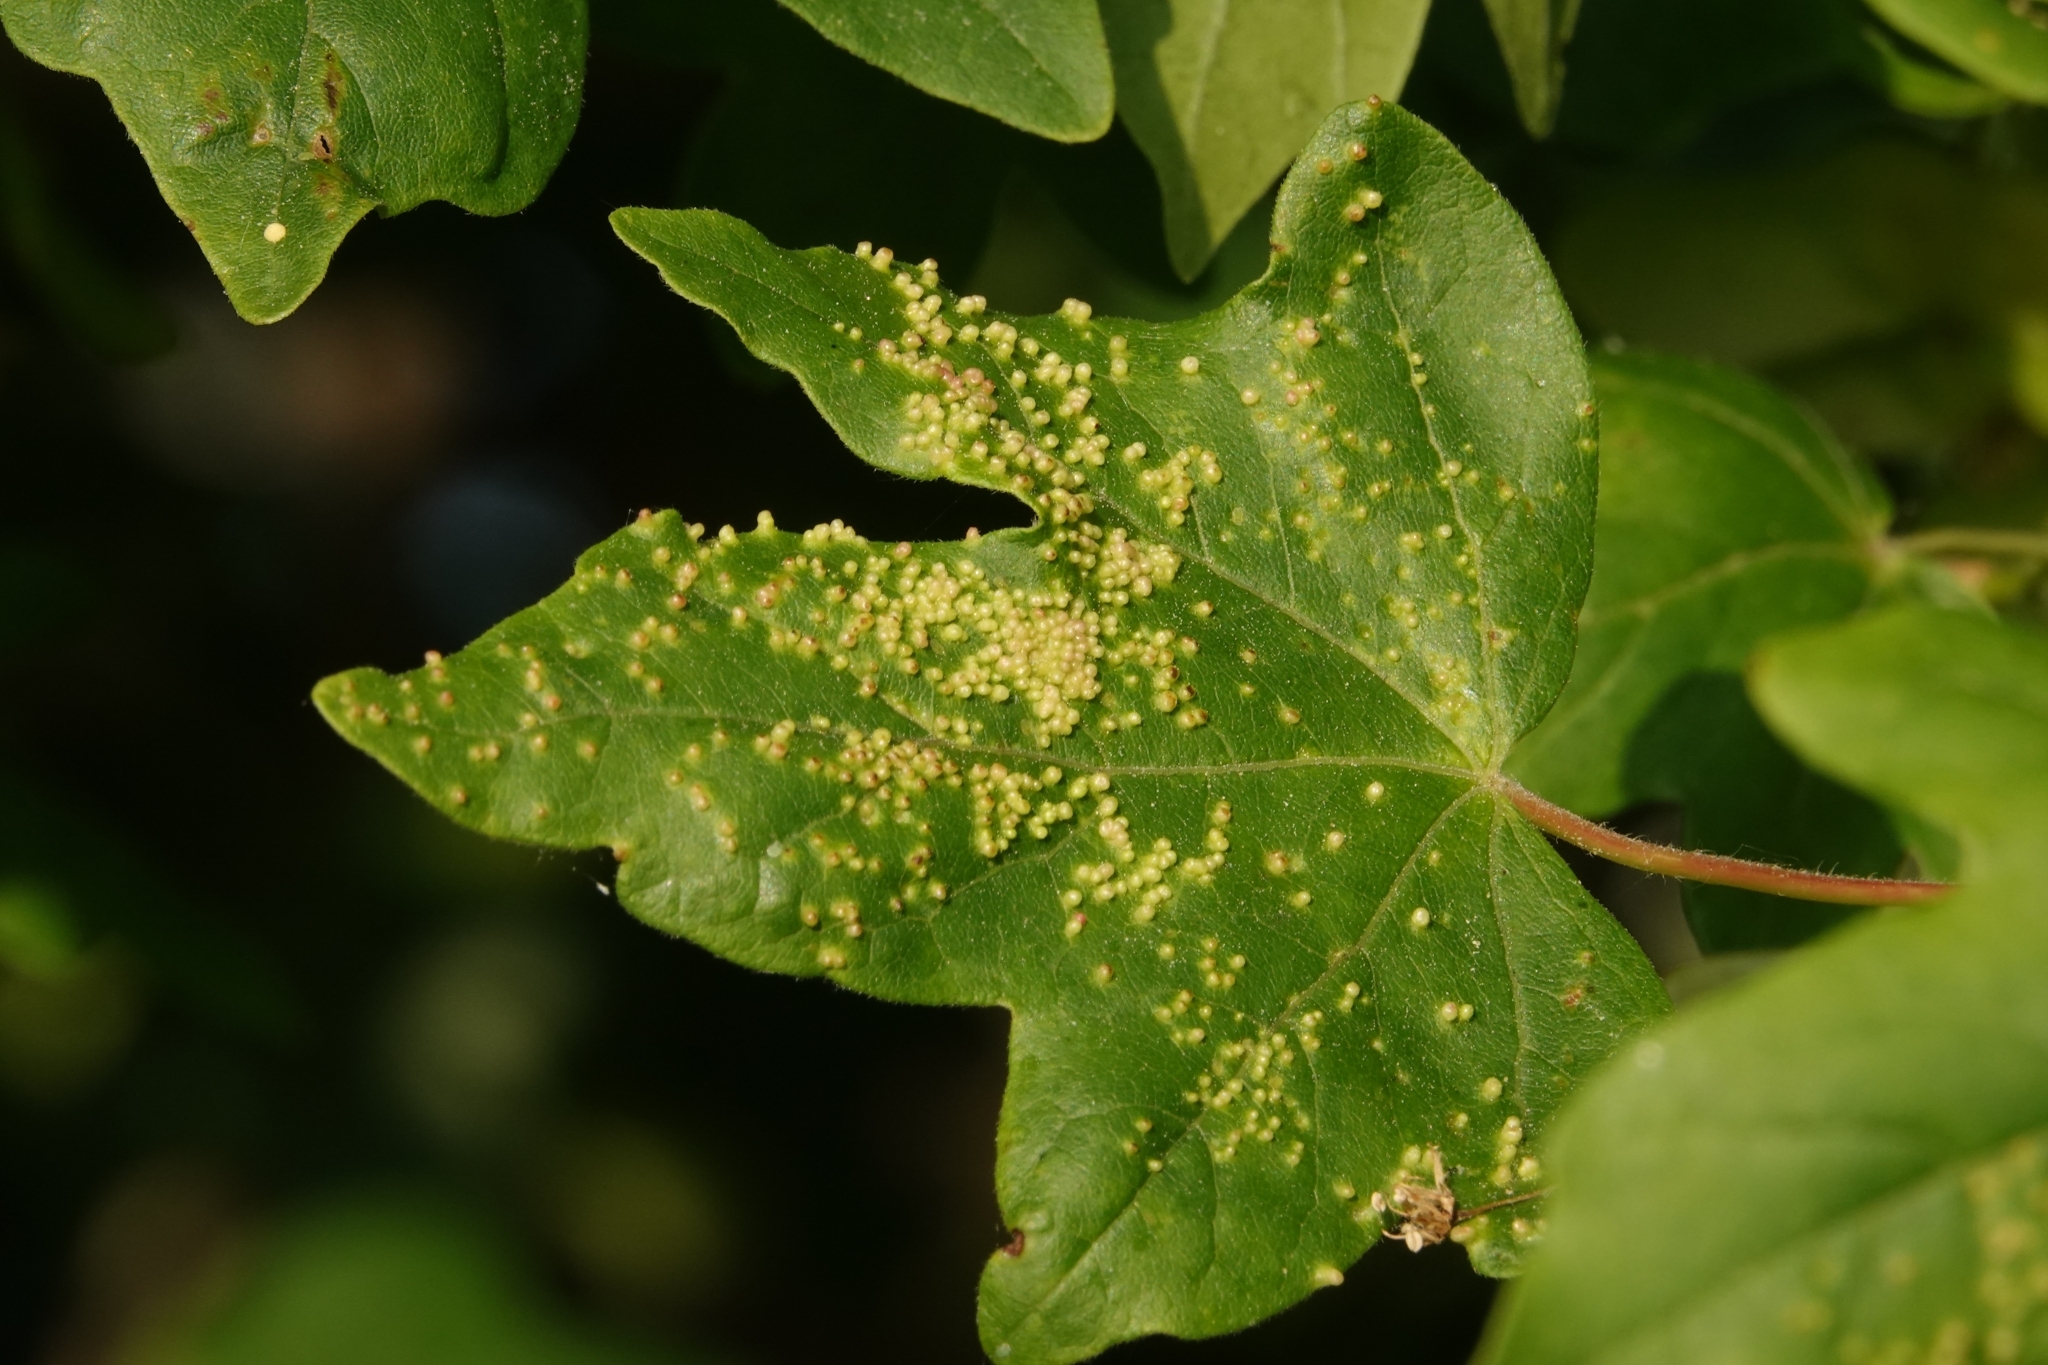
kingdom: Animalia
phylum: Arthropoda
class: Arachnida
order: Trombidiformes
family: Eriophyidae
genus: Aceria
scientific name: Aceria myriadeum
